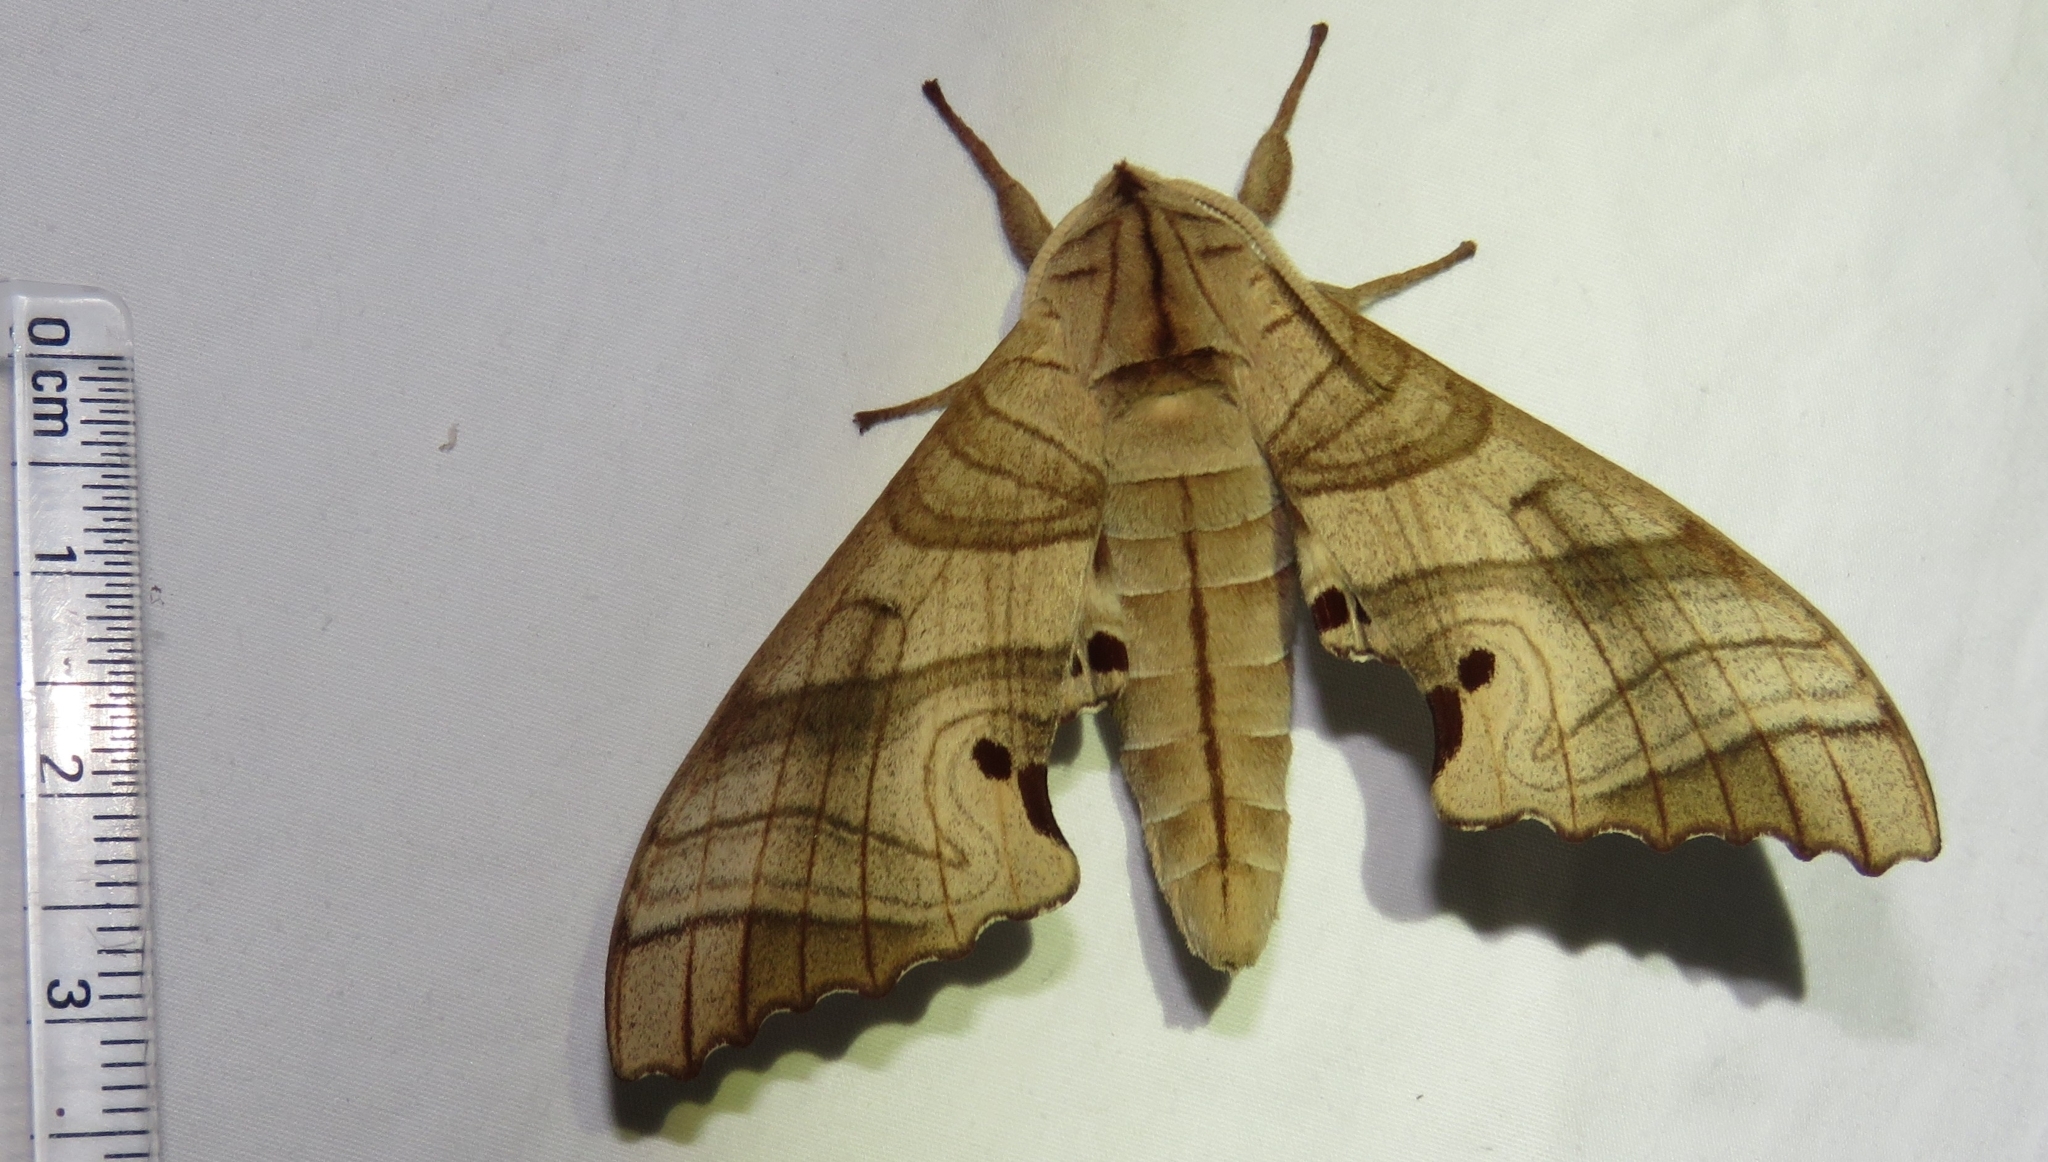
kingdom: Animalia
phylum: Arthropoda
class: Insecta
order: Lepidoptera
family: Sphingidae
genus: Marumba
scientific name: Marumba dyras
